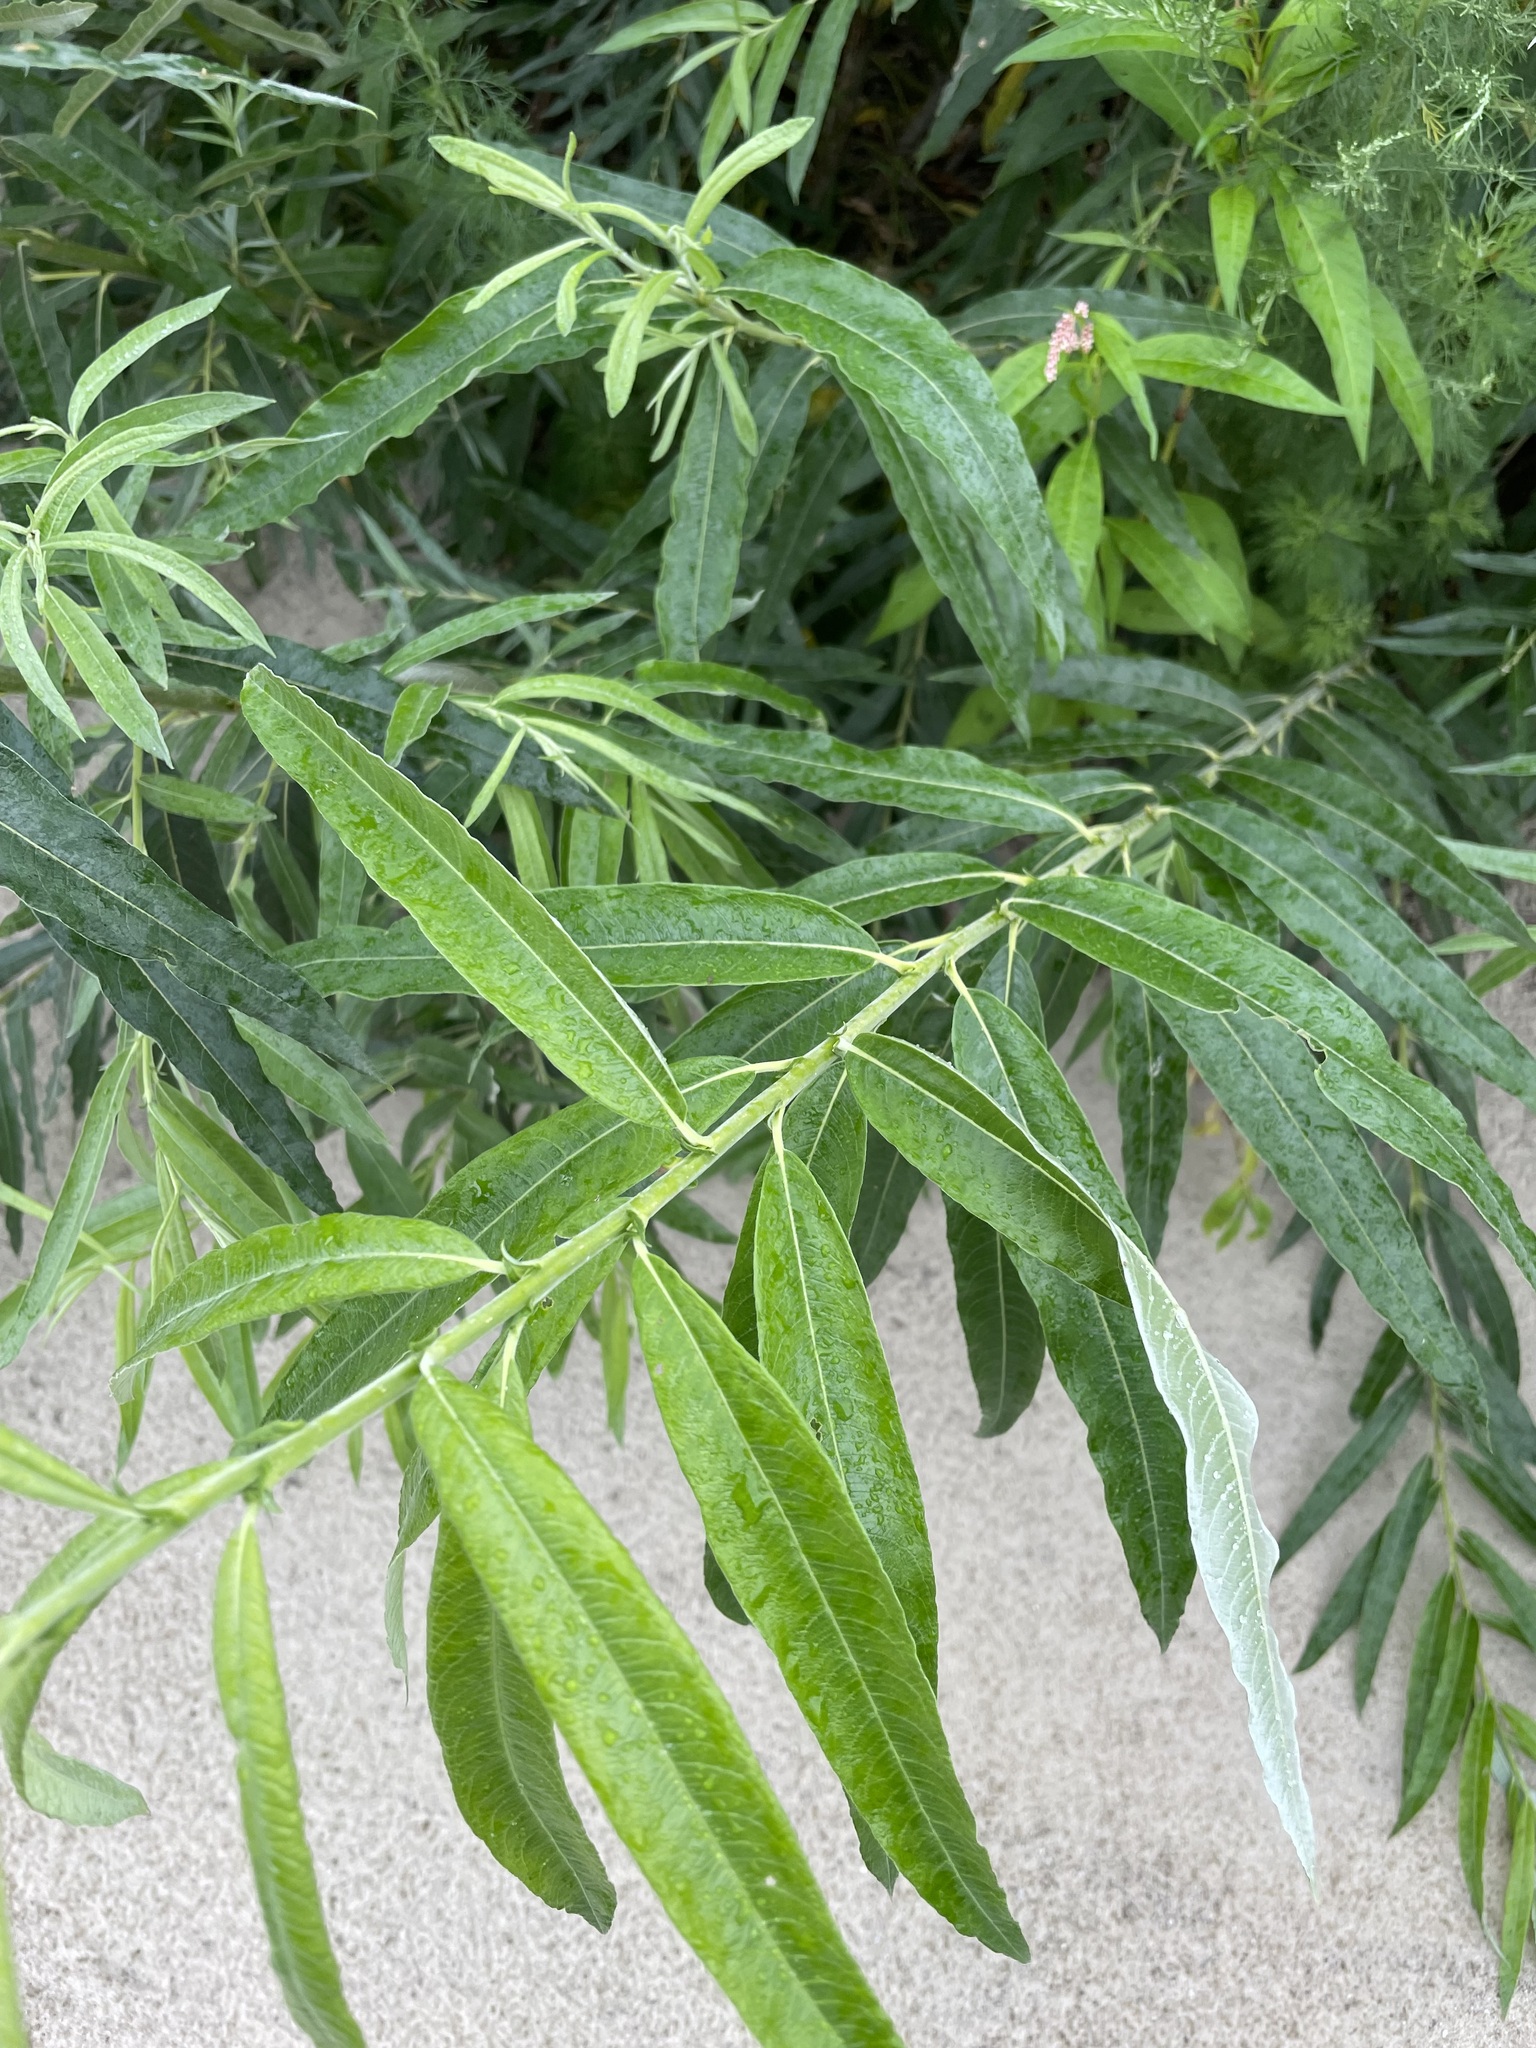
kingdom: Plantae
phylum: Tracheophyta
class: Magnoliopsida
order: Malpighiales
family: Salicaceae
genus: Salix
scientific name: Salix gmelinii
